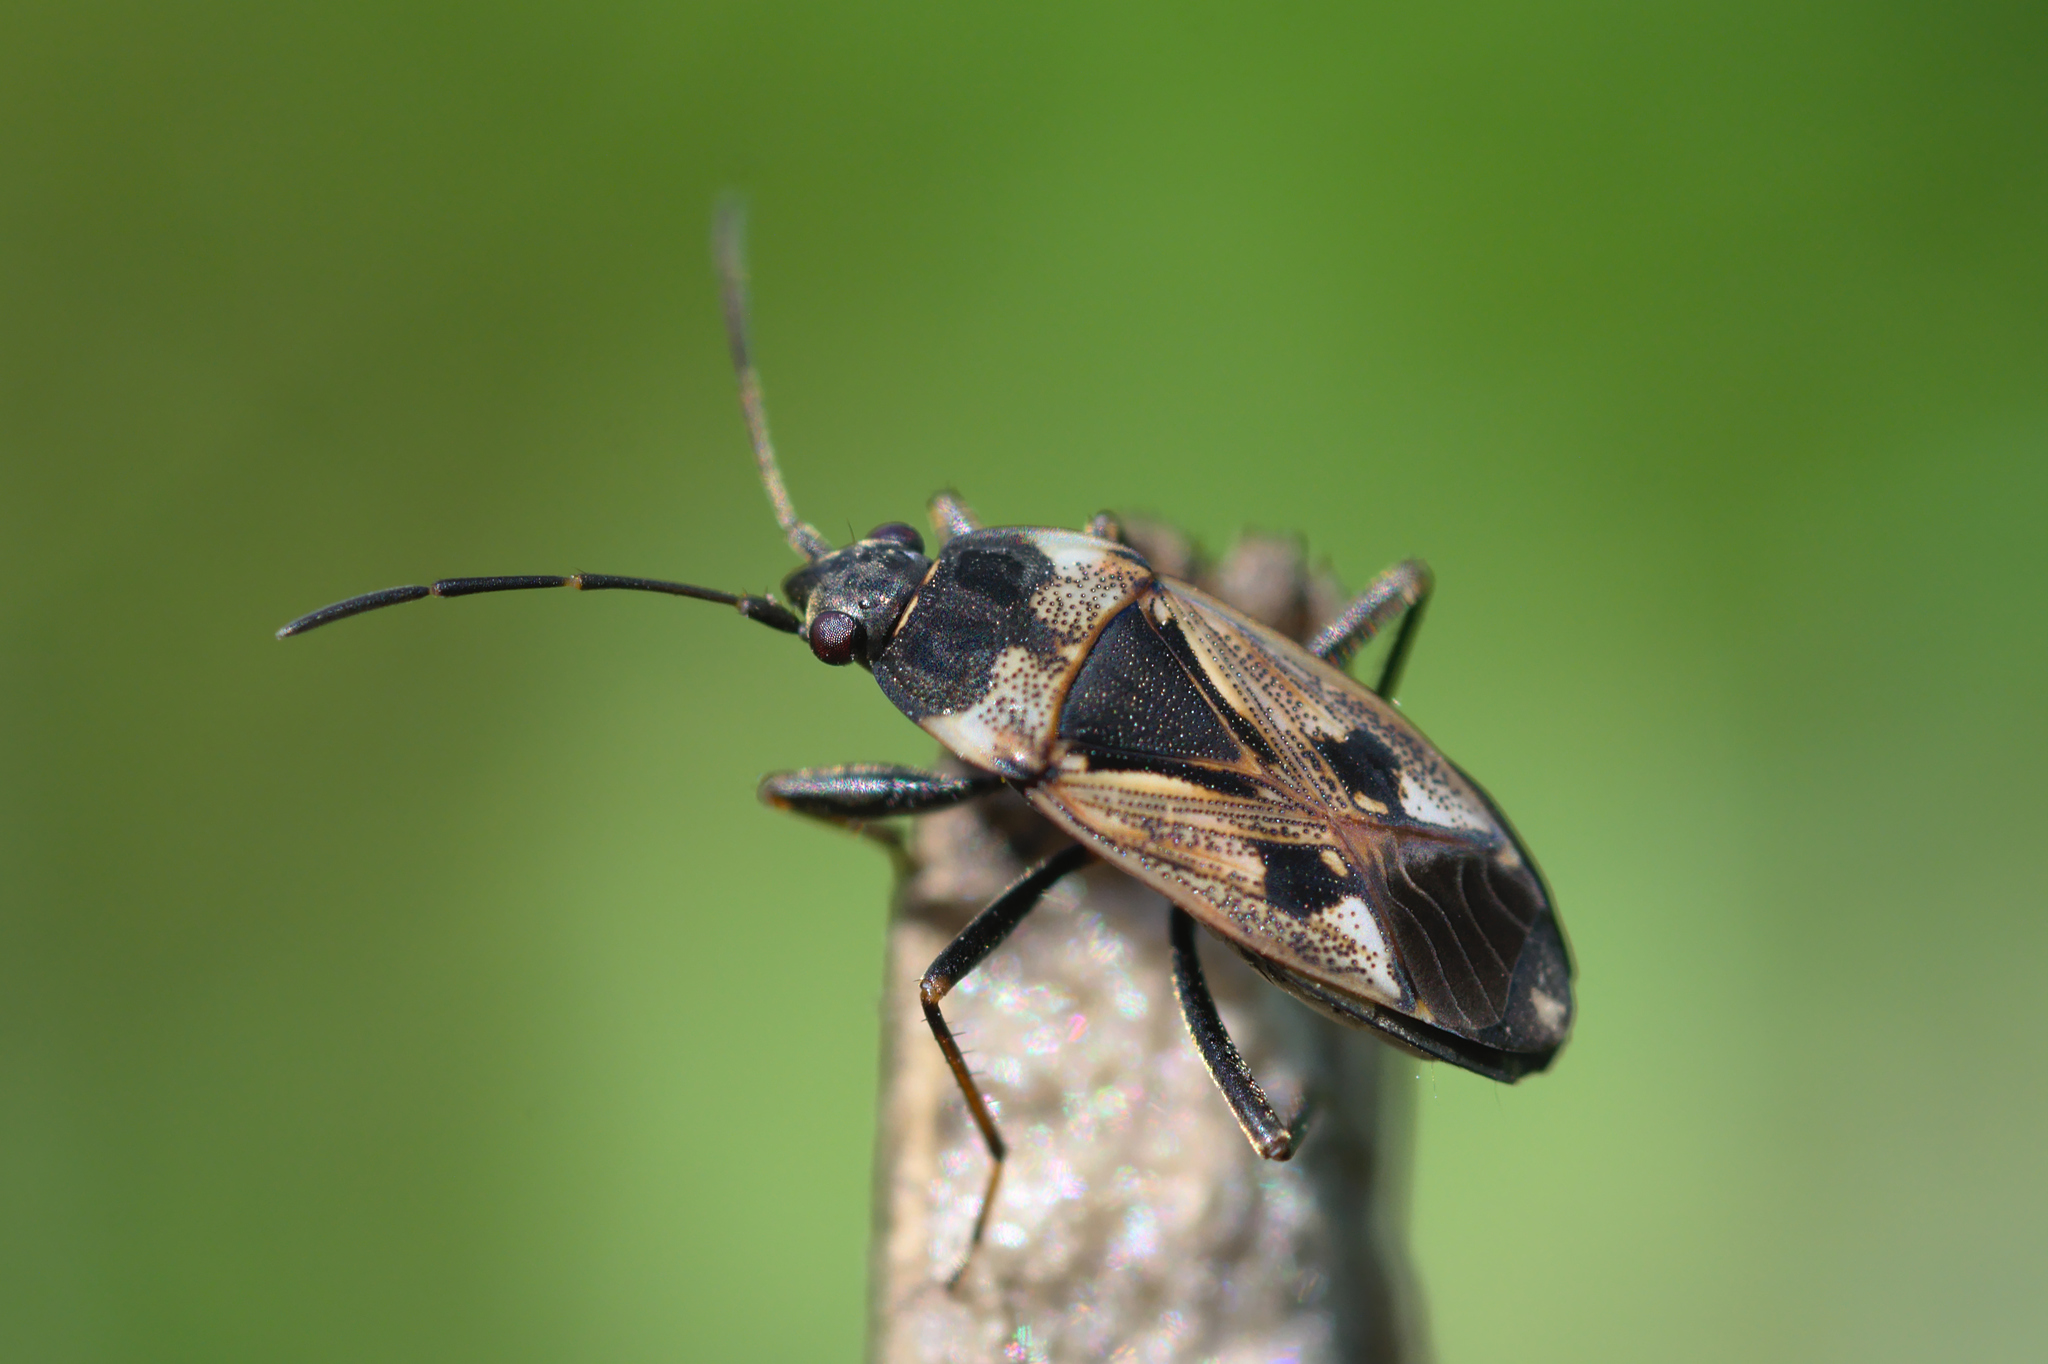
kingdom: Animalia
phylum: Arthropoda
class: Insecta
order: Hemiptera
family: Rhyparochromidae
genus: Rhyparochromus
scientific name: Rhyparochromus vulgaris
